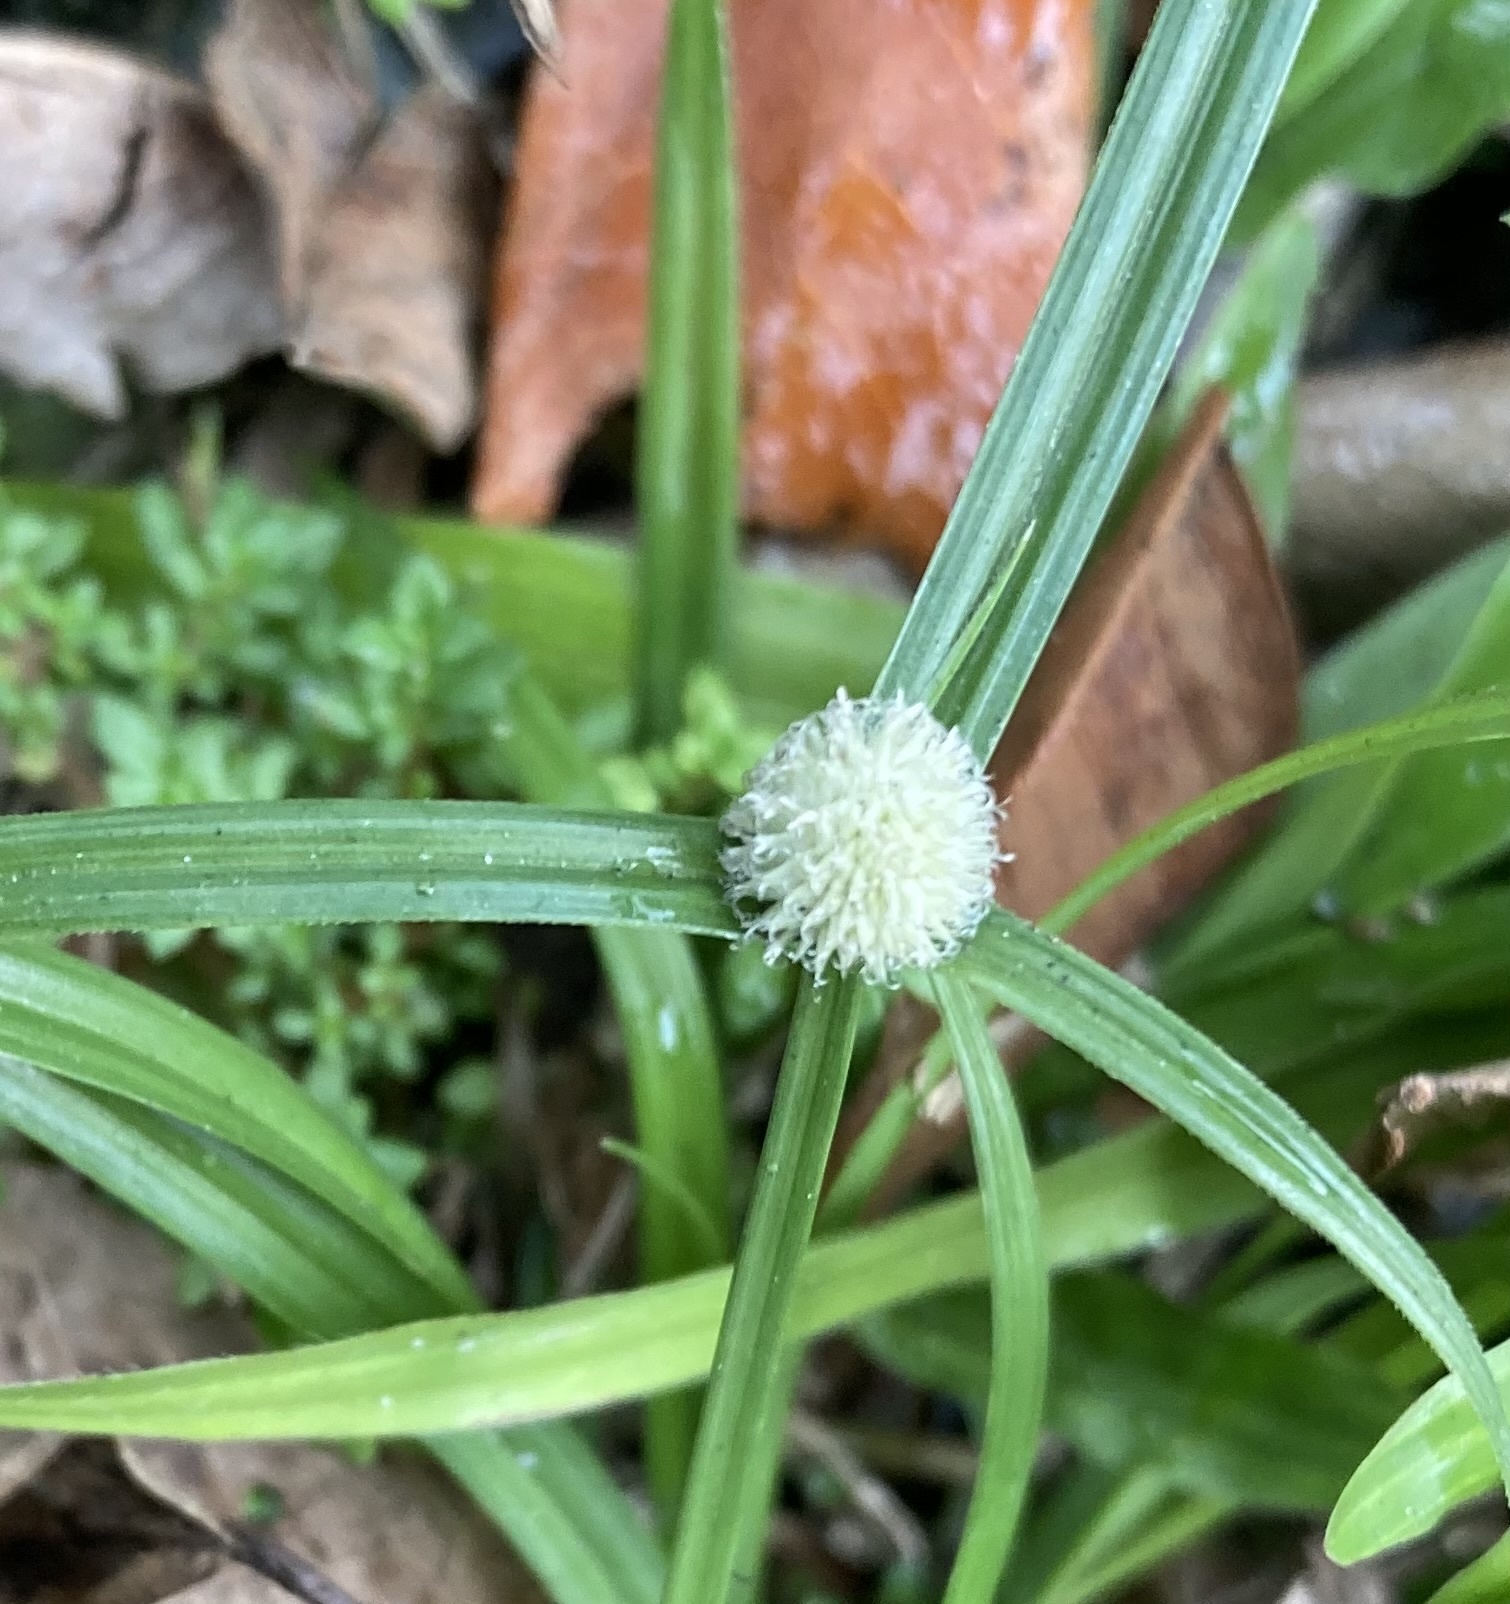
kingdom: Plantae
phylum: Tracheophyta
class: Liliopsida
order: Poales
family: Cyperaceae
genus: Cyperus
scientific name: Cyperus mindorensis
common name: Flatsedge
